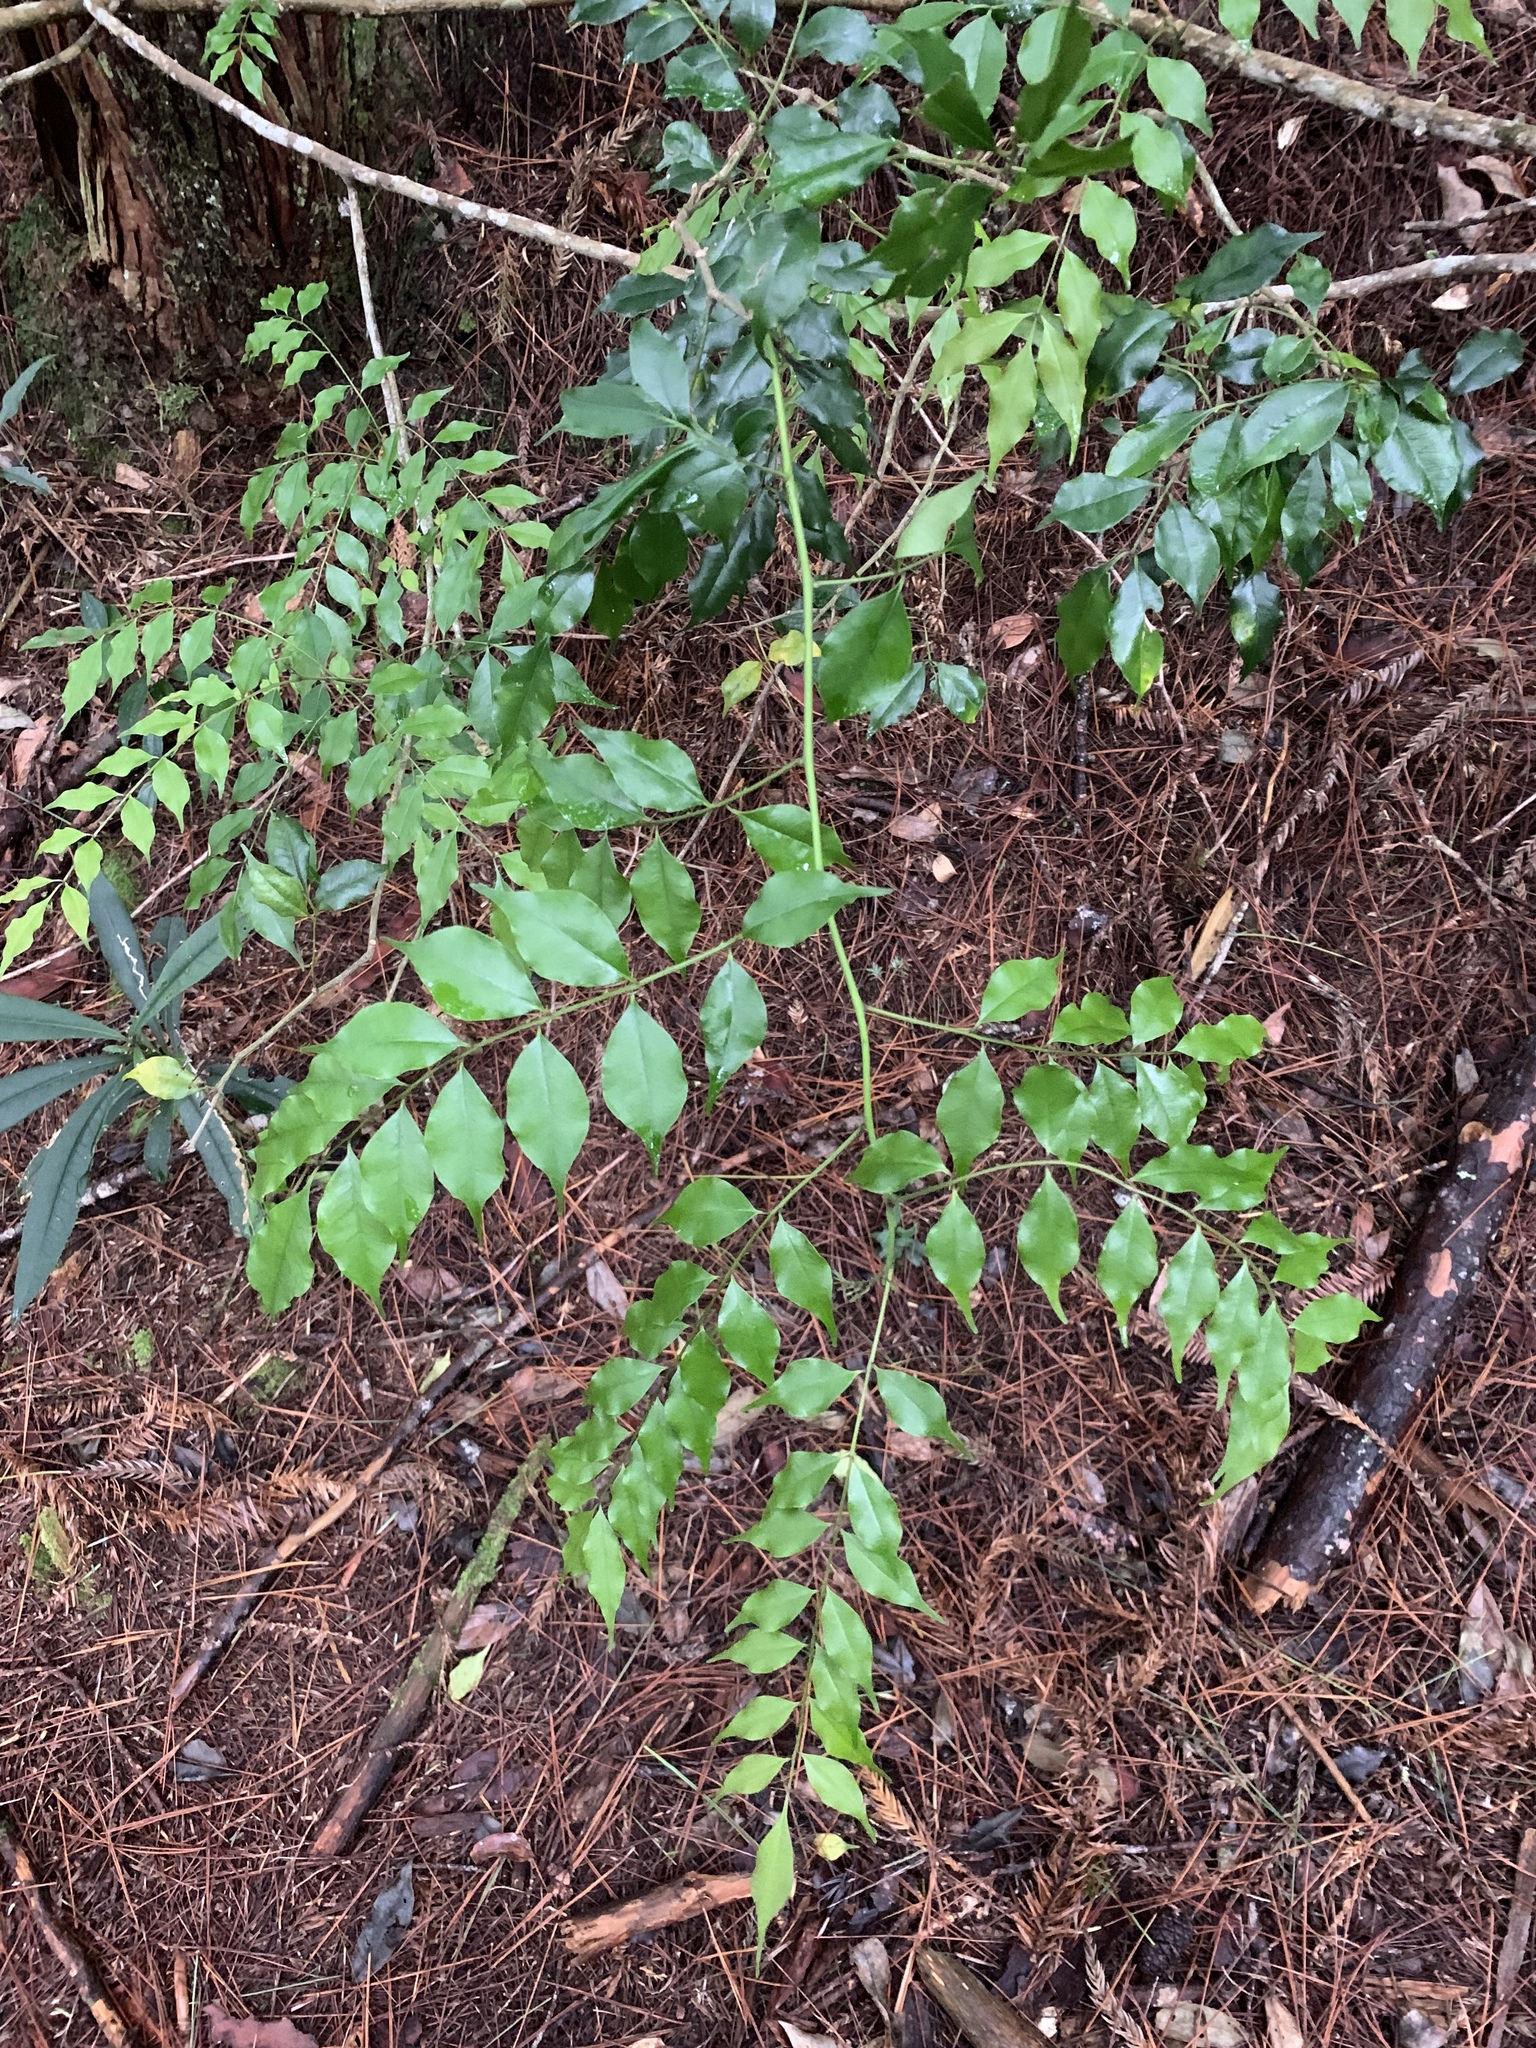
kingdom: Plantae
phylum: Tracheophyta
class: Magnoliopsida
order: Sapindales
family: Rutaceae
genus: Zanthoxylum
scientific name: Zanthoxylum scandens
